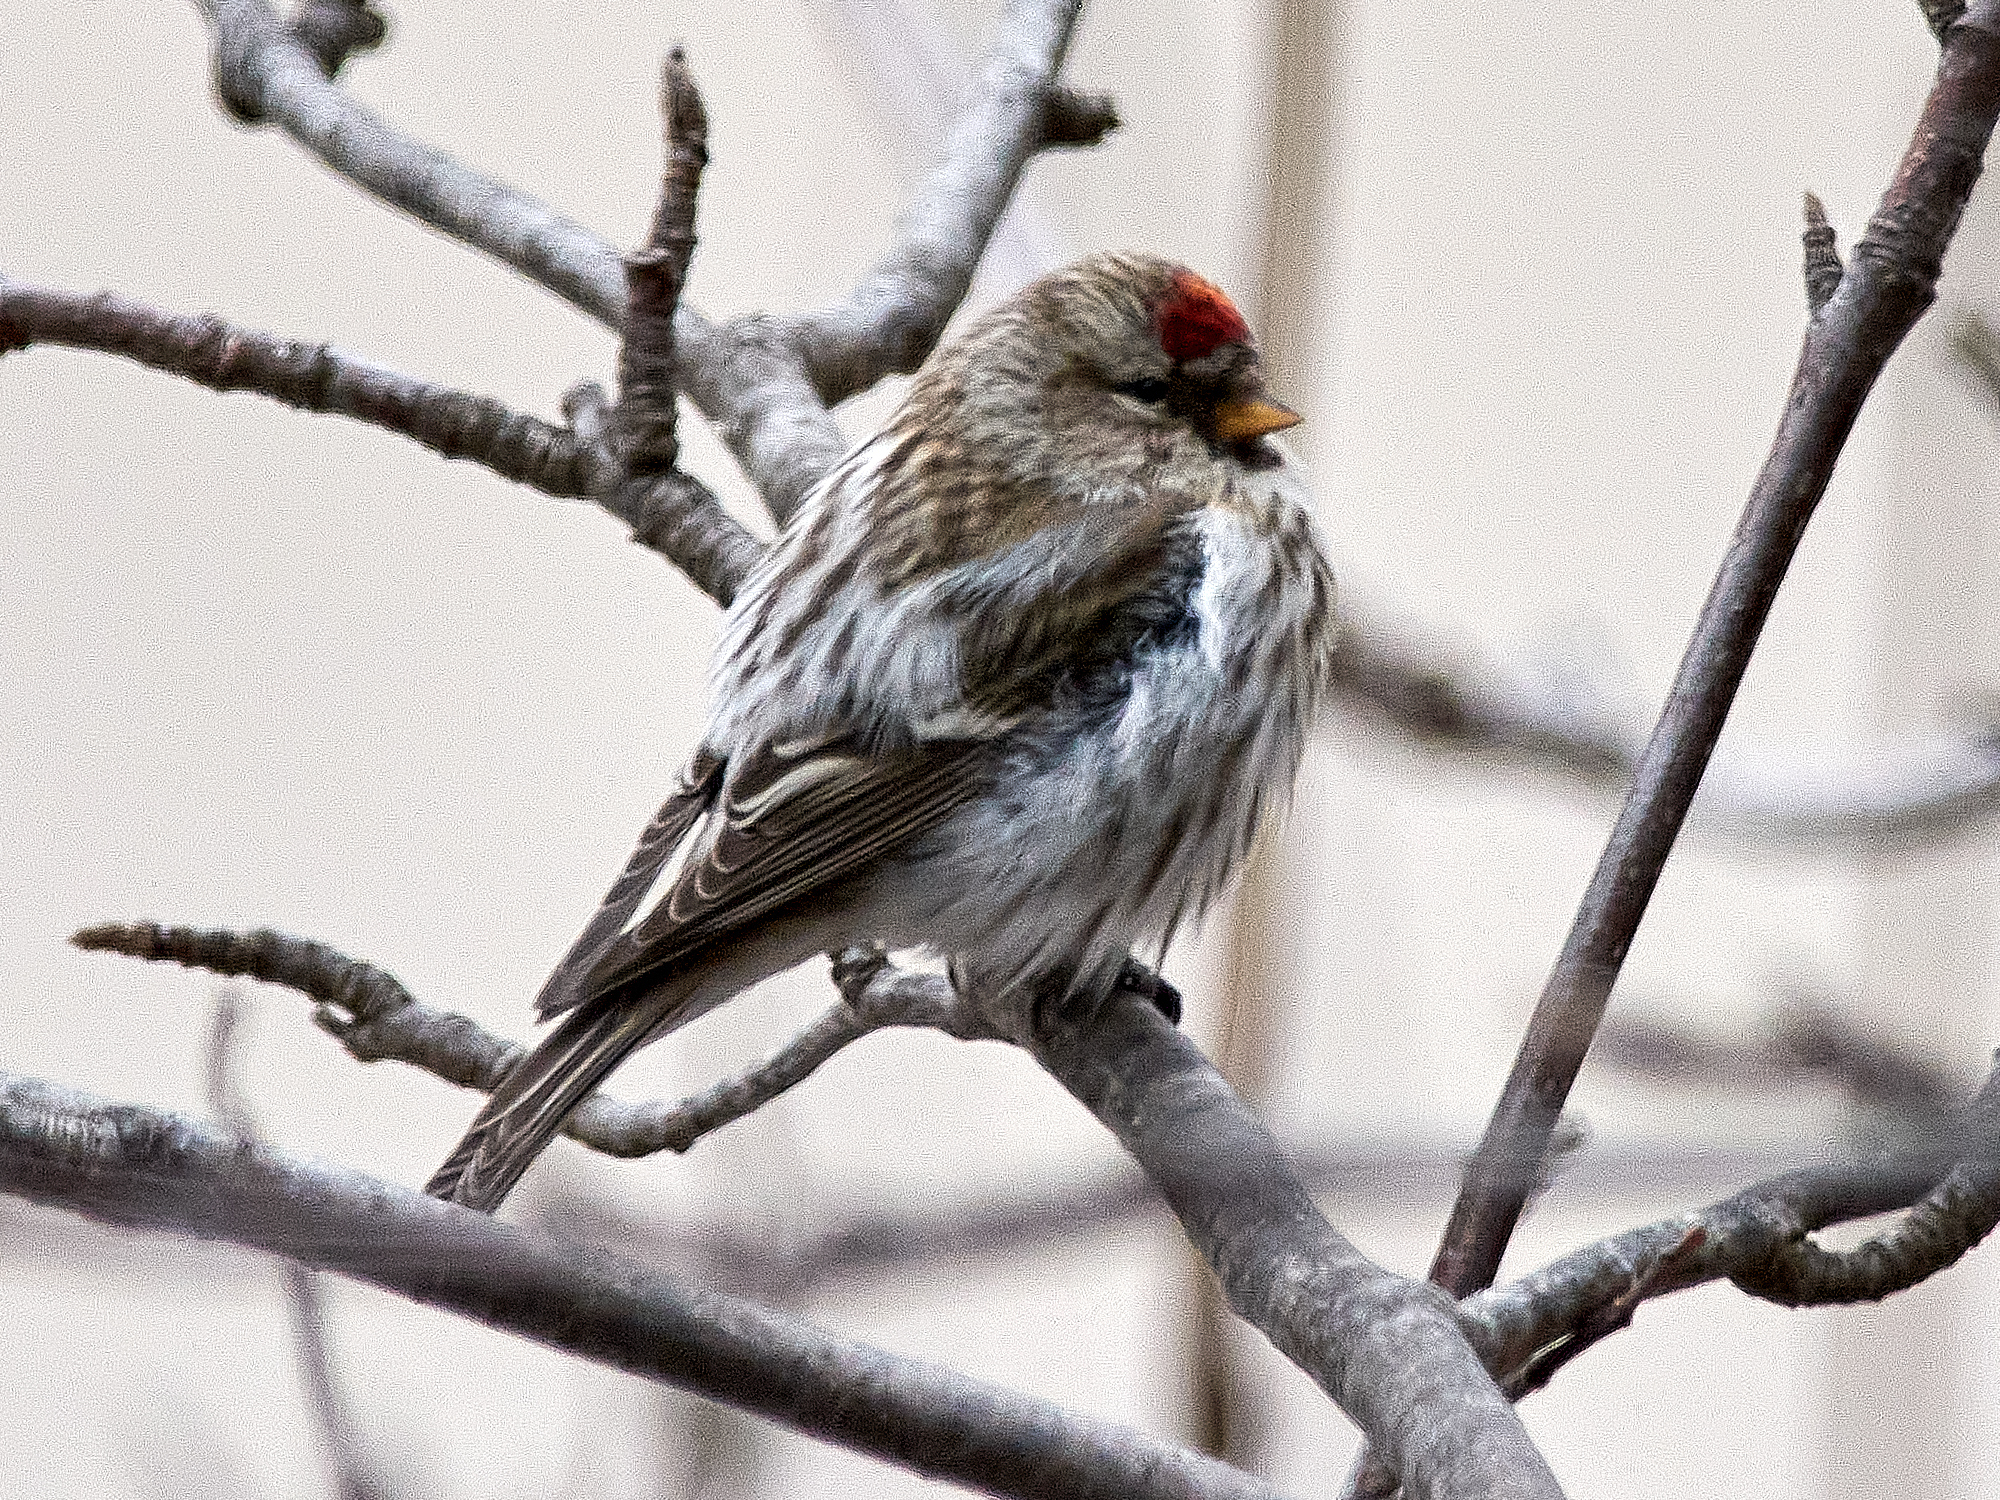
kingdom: Animalia
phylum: Chordata
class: Aves
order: Passeriformes
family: Fringillidae
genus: Acanthis
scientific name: Acanthis flammea
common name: Common redpoll
